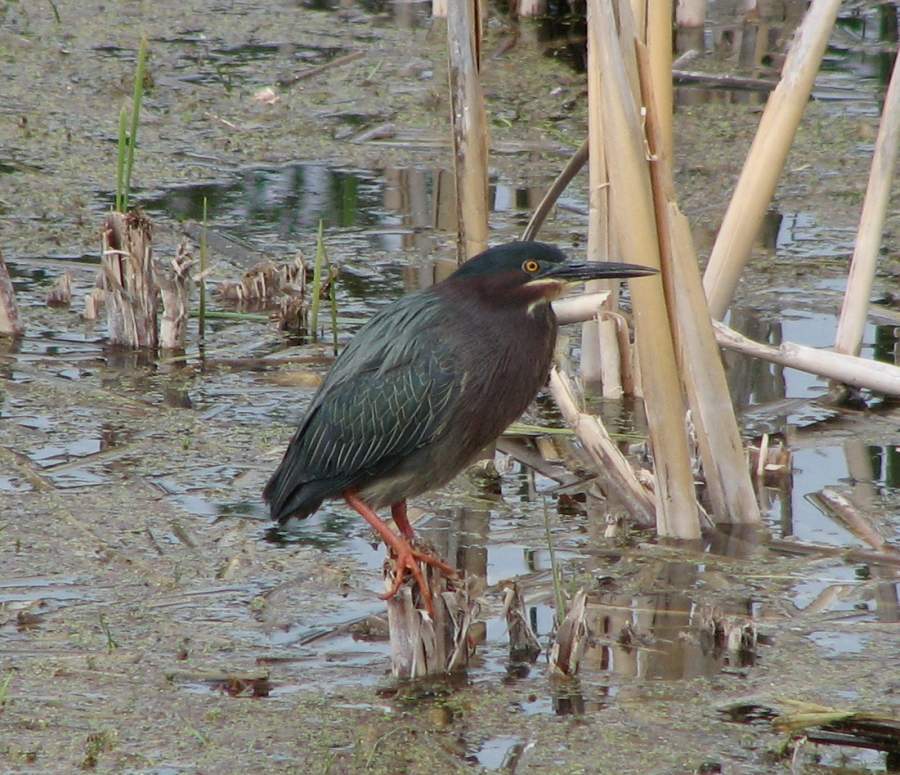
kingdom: Animalia
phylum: Chordata
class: Aves
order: Pelecaniformes
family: Ardeidae
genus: Butorides
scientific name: Butorides virescens
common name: Green heron
